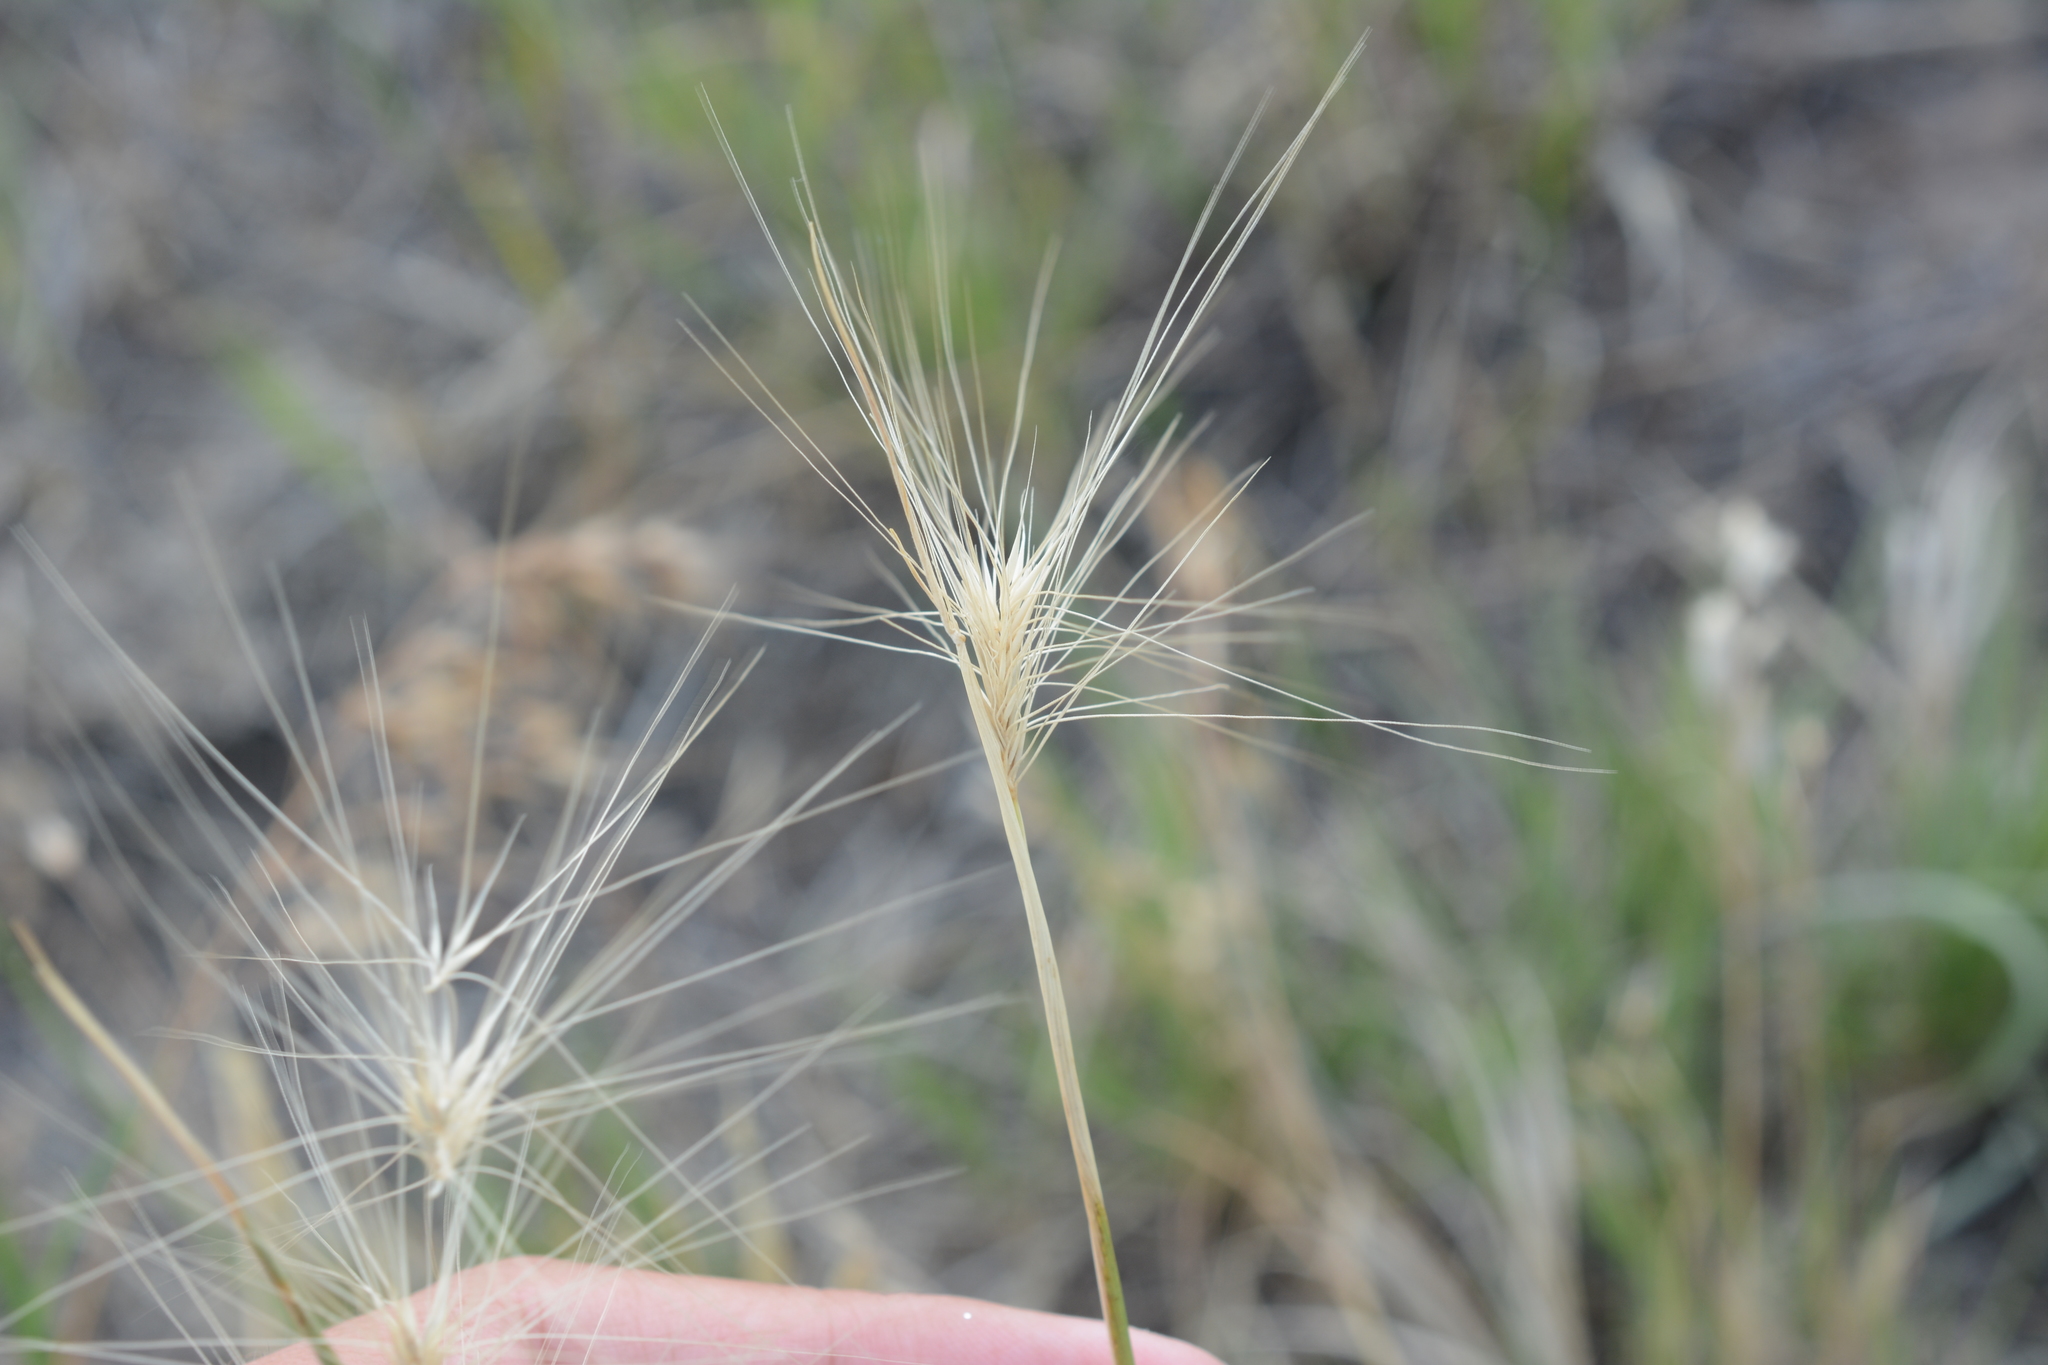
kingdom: Plantae
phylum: Tracheophyta
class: Liliopsida
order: Poales
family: Poaceae
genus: Hordeum
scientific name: Hordeum jubatum
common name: Foxtail barley
